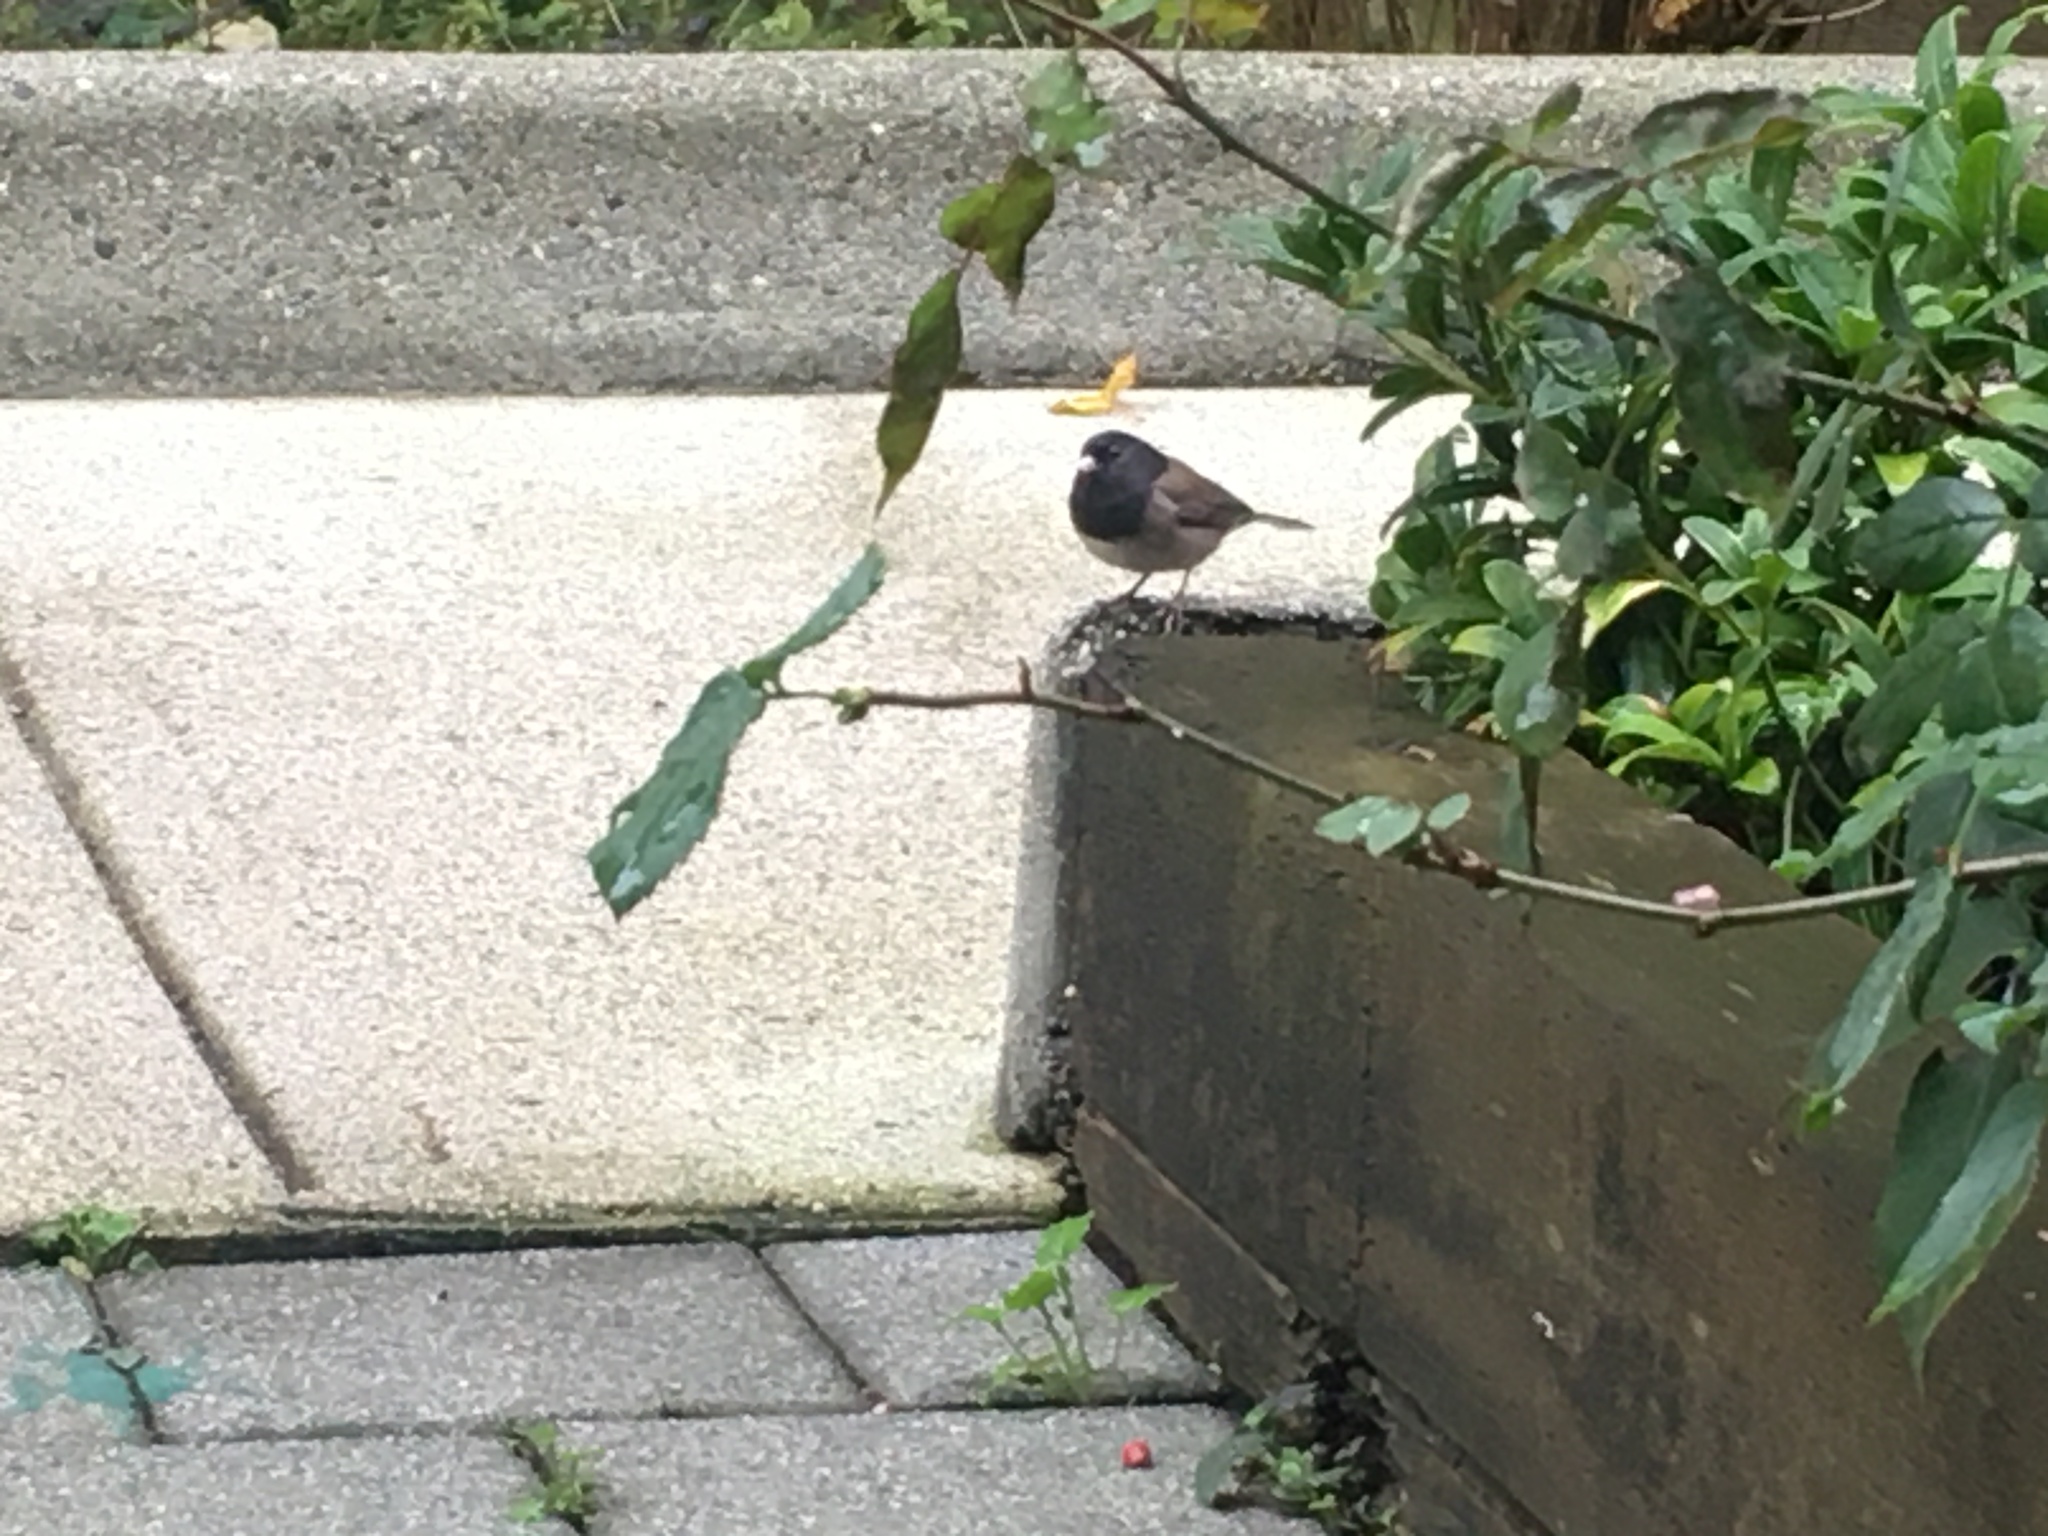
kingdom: Animalia
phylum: Chordata
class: Aves
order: Passeriformes
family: Passerellidae
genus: Junco
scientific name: Junco hyemalis
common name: Dark-eyed junco
